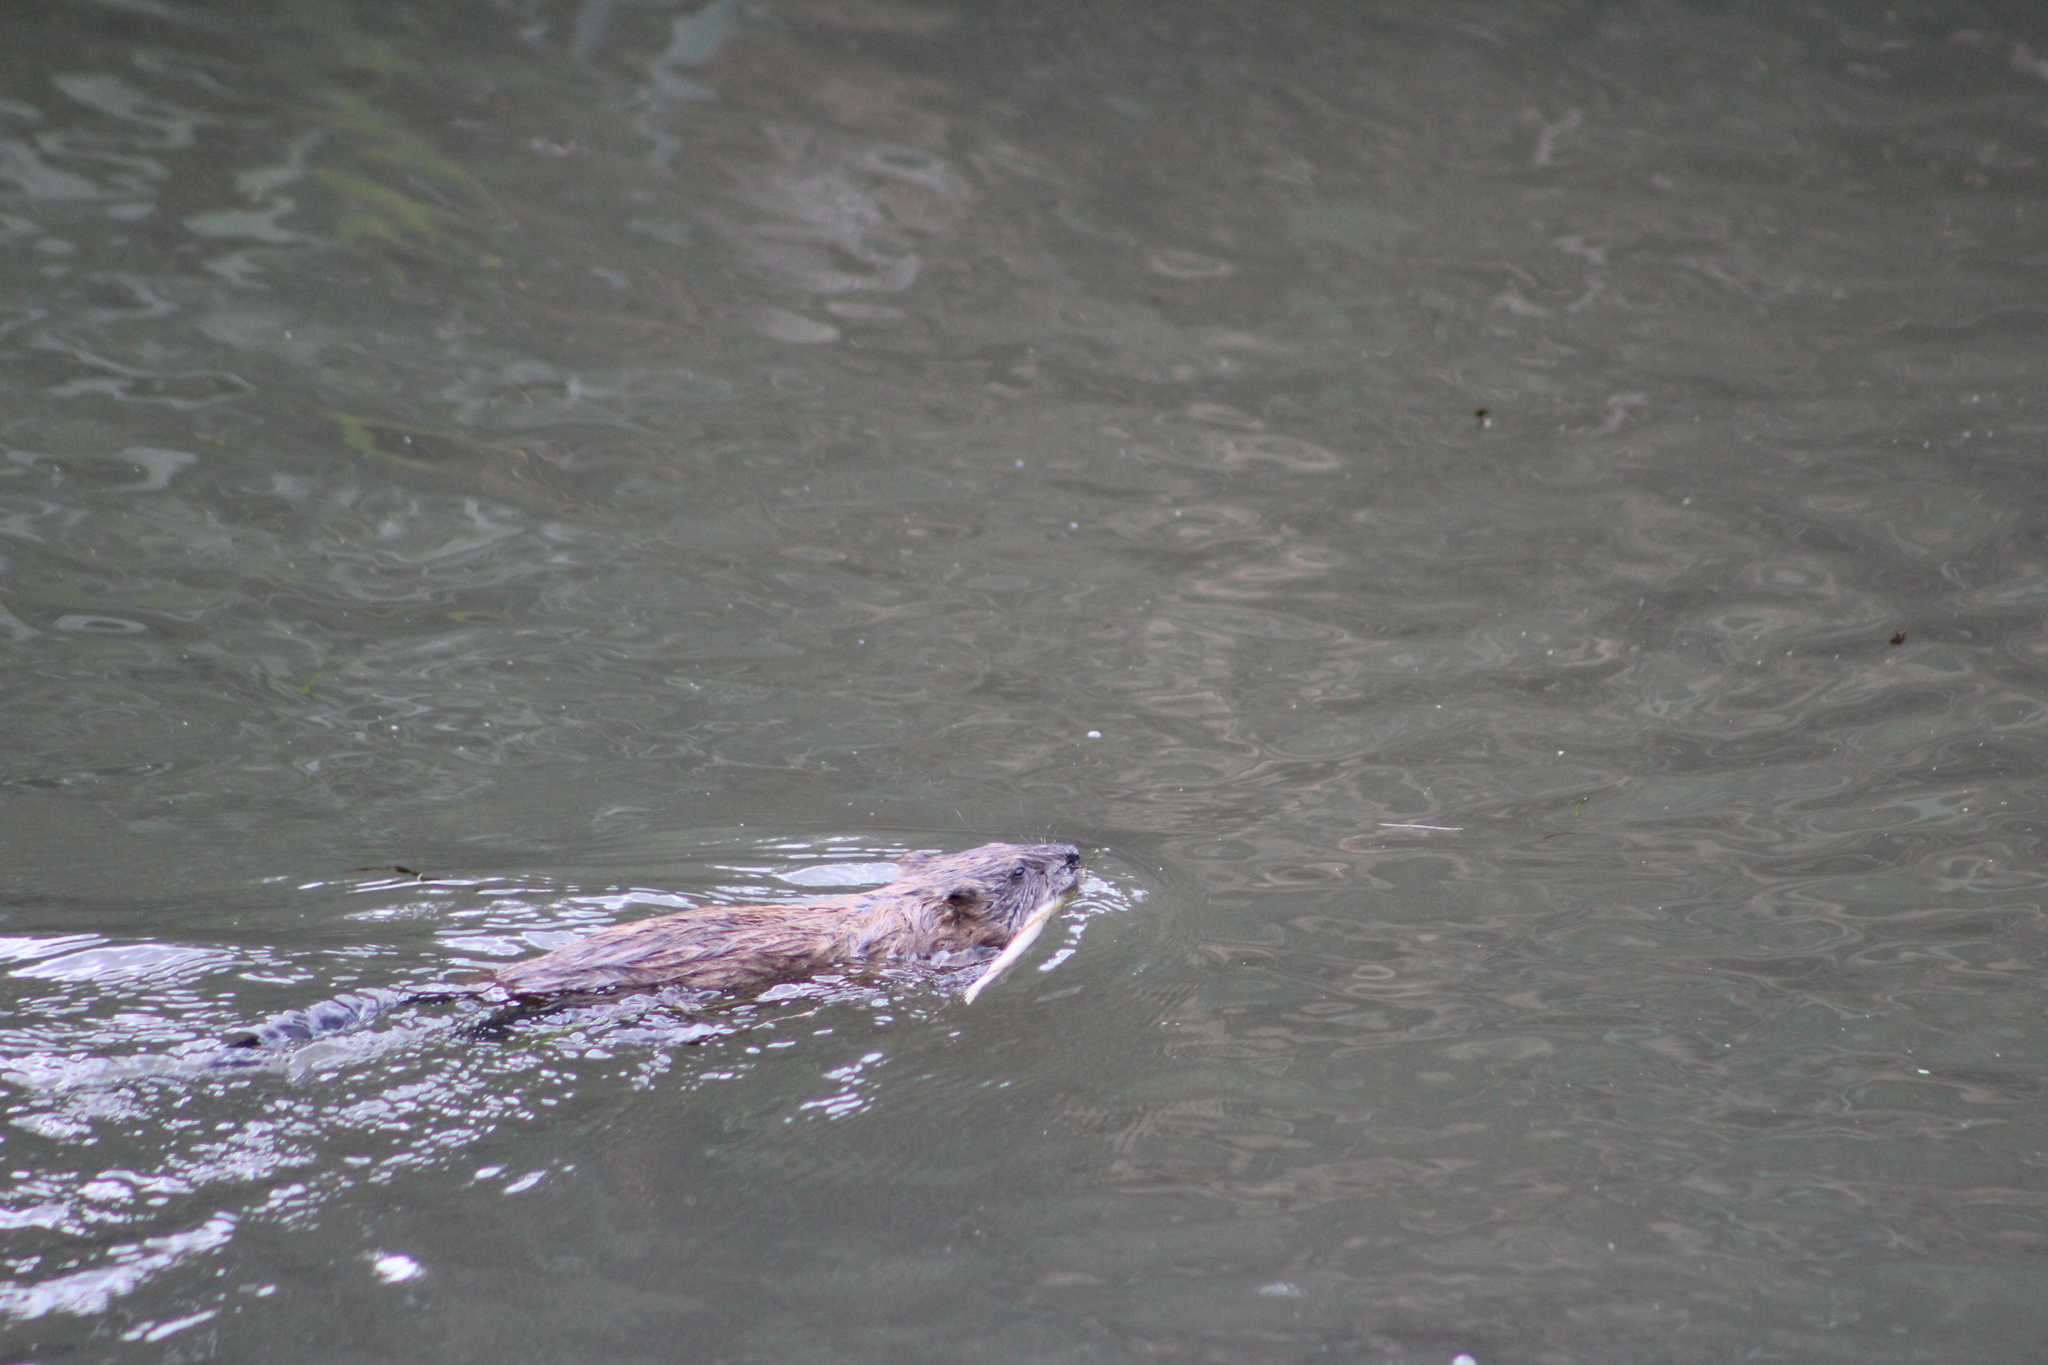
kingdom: Animalia
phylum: Chordata
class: Mammalia
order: Rodentia
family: Cricetidae
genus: Ondatra
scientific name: Ondatra zibethicus
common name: Muskrat
